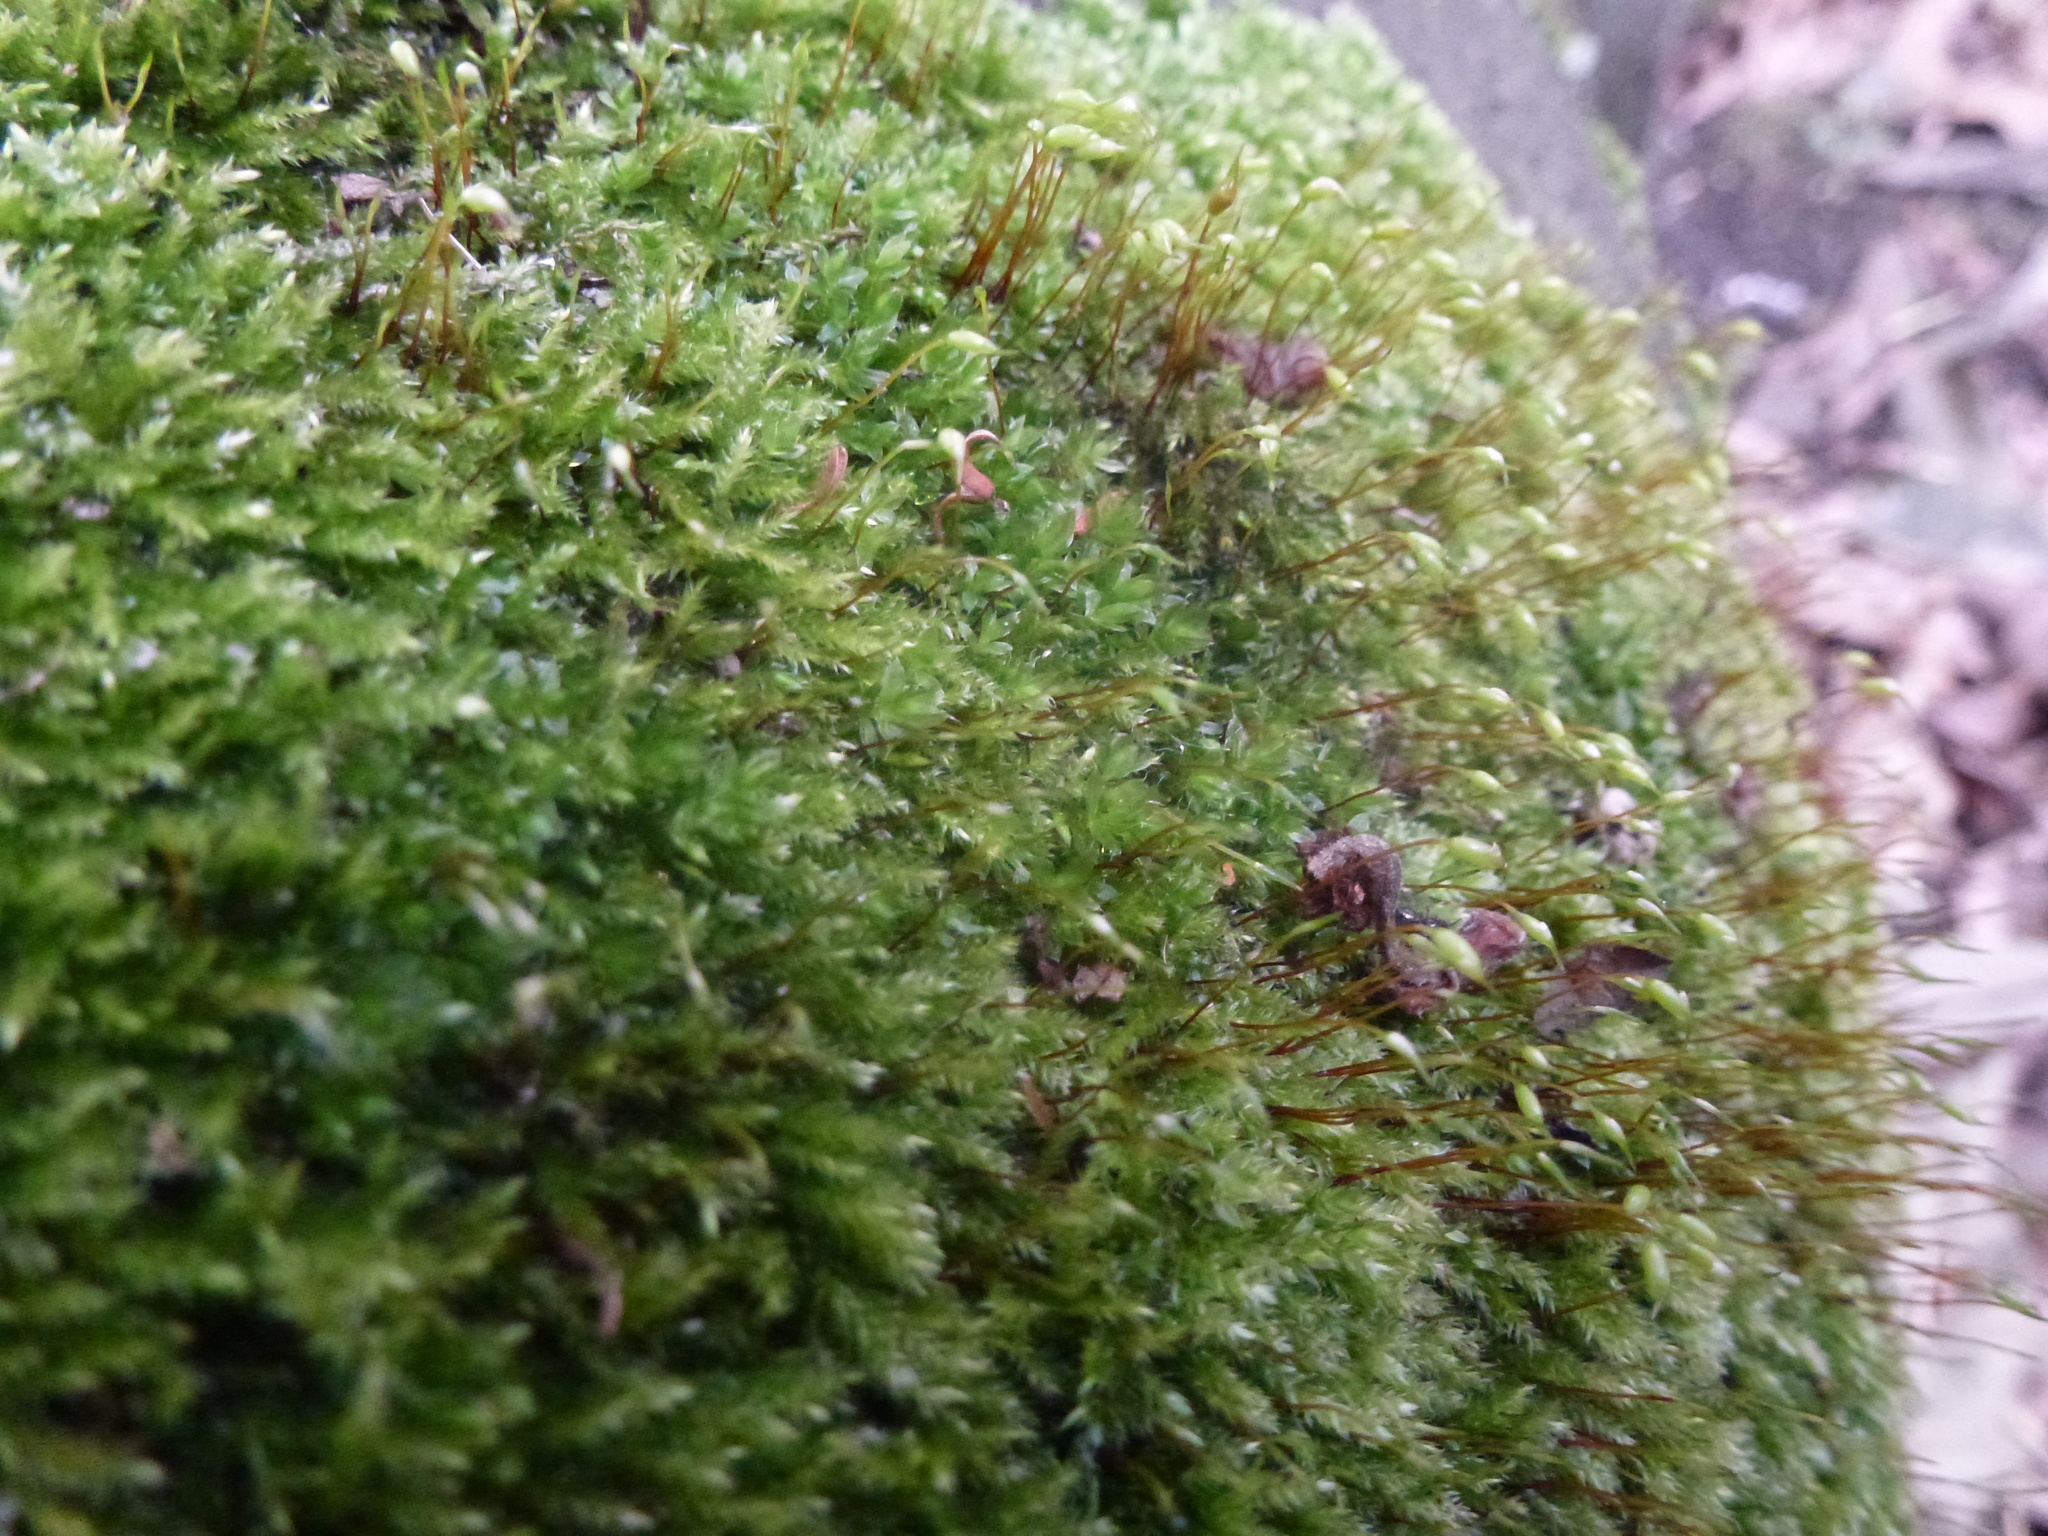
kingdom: Plantae
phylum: Bryophyta
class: Bryopsida
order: Hypnales
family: Brachytheciaceae
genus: Rhynchostegium
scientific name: Rhynchostegium confertum
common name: Clustered feather-moss
